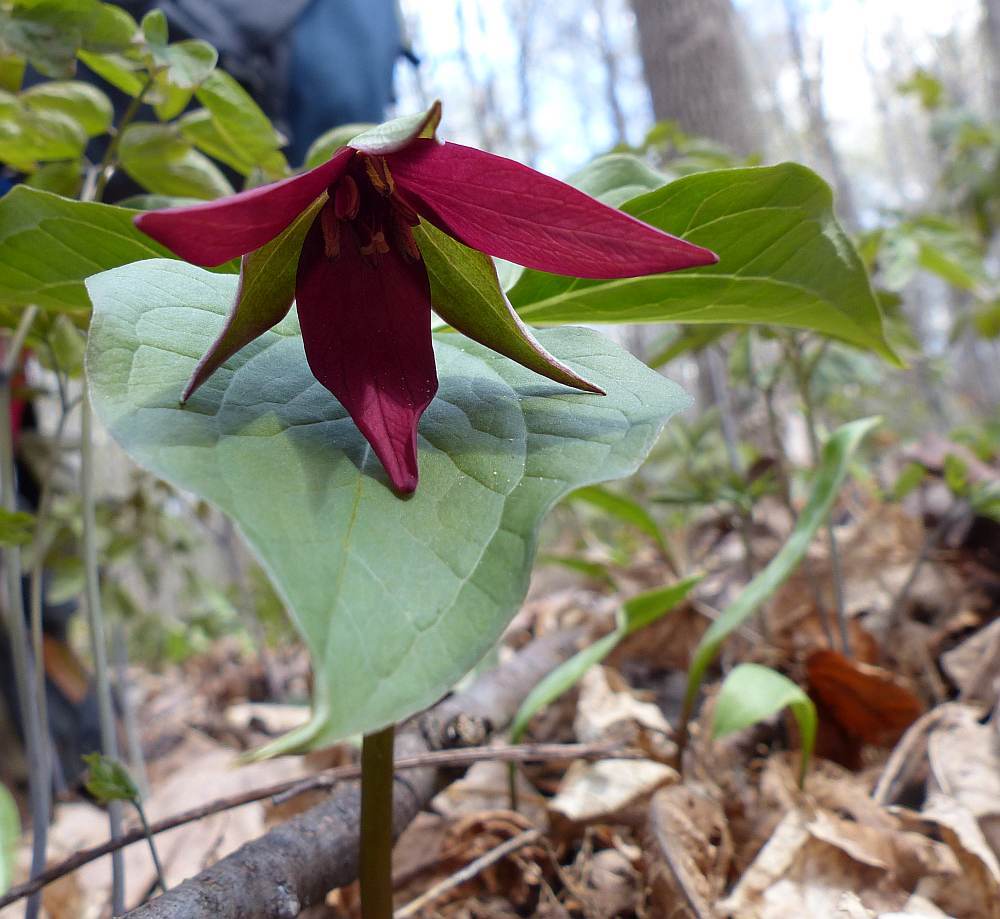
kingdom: Plantae
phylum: Tracheophyta
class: Liliopsida
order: Liliales
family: Melanthiaceae
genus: Trillium
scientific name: Trillium erectum
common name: Purple trillium
